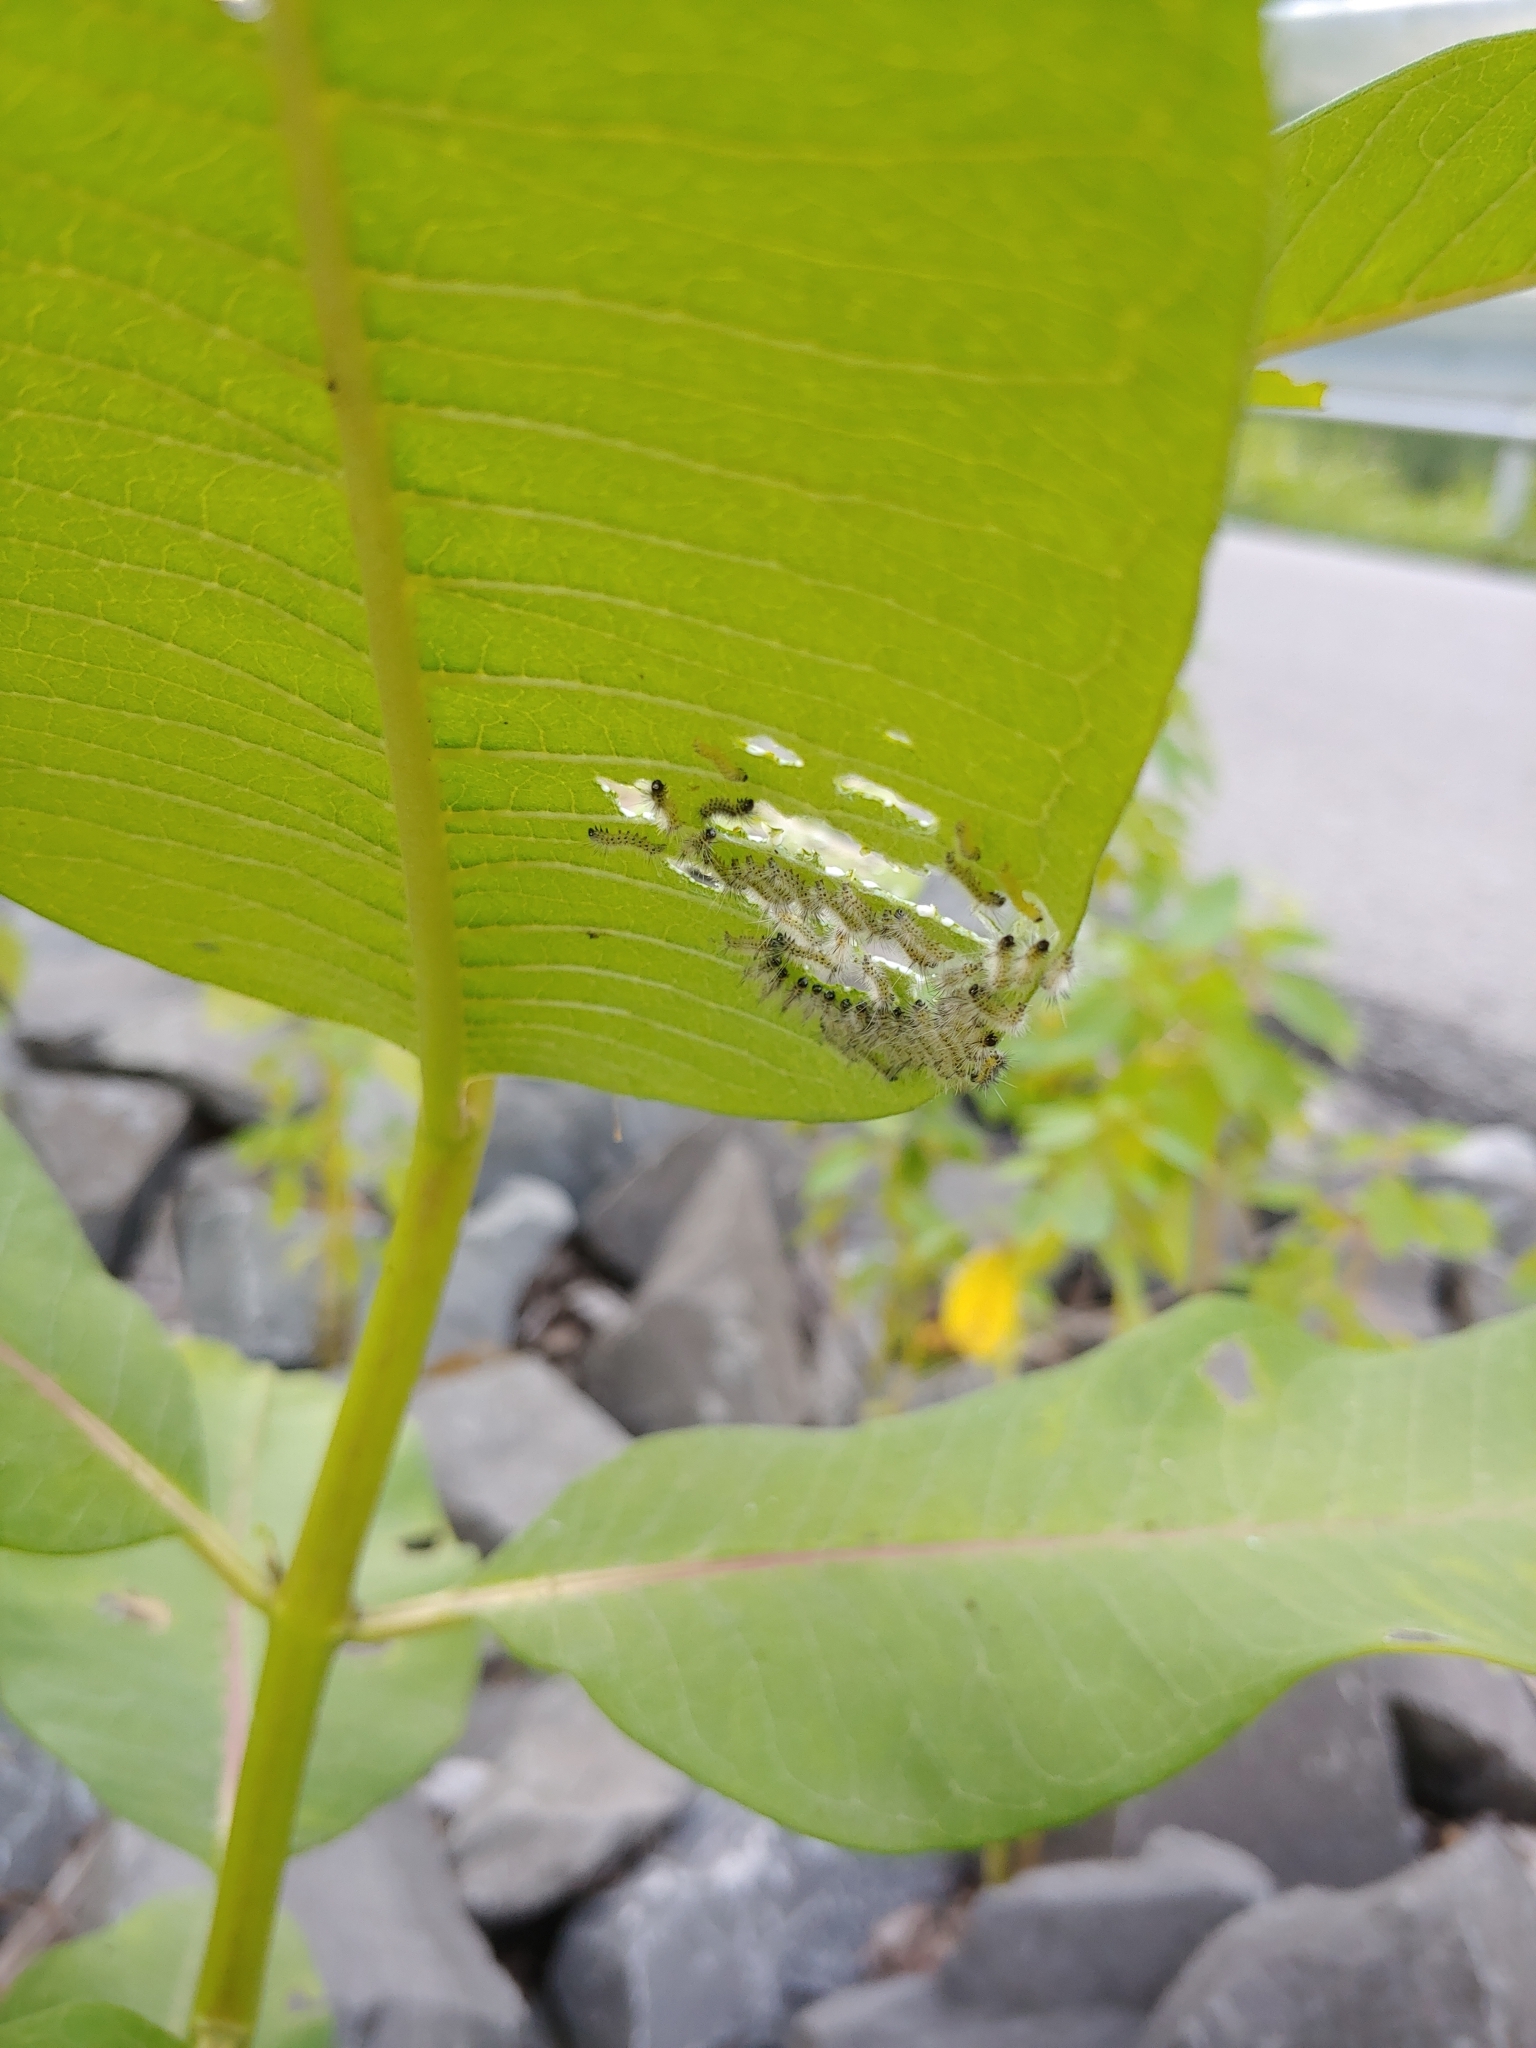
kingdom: Animalia
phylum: Arthropoda
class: Insecta
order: Lepidoptera
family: Erebidae
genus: Euchaetes
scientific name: Euchaetes egle
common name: Milkweed tussock moth
